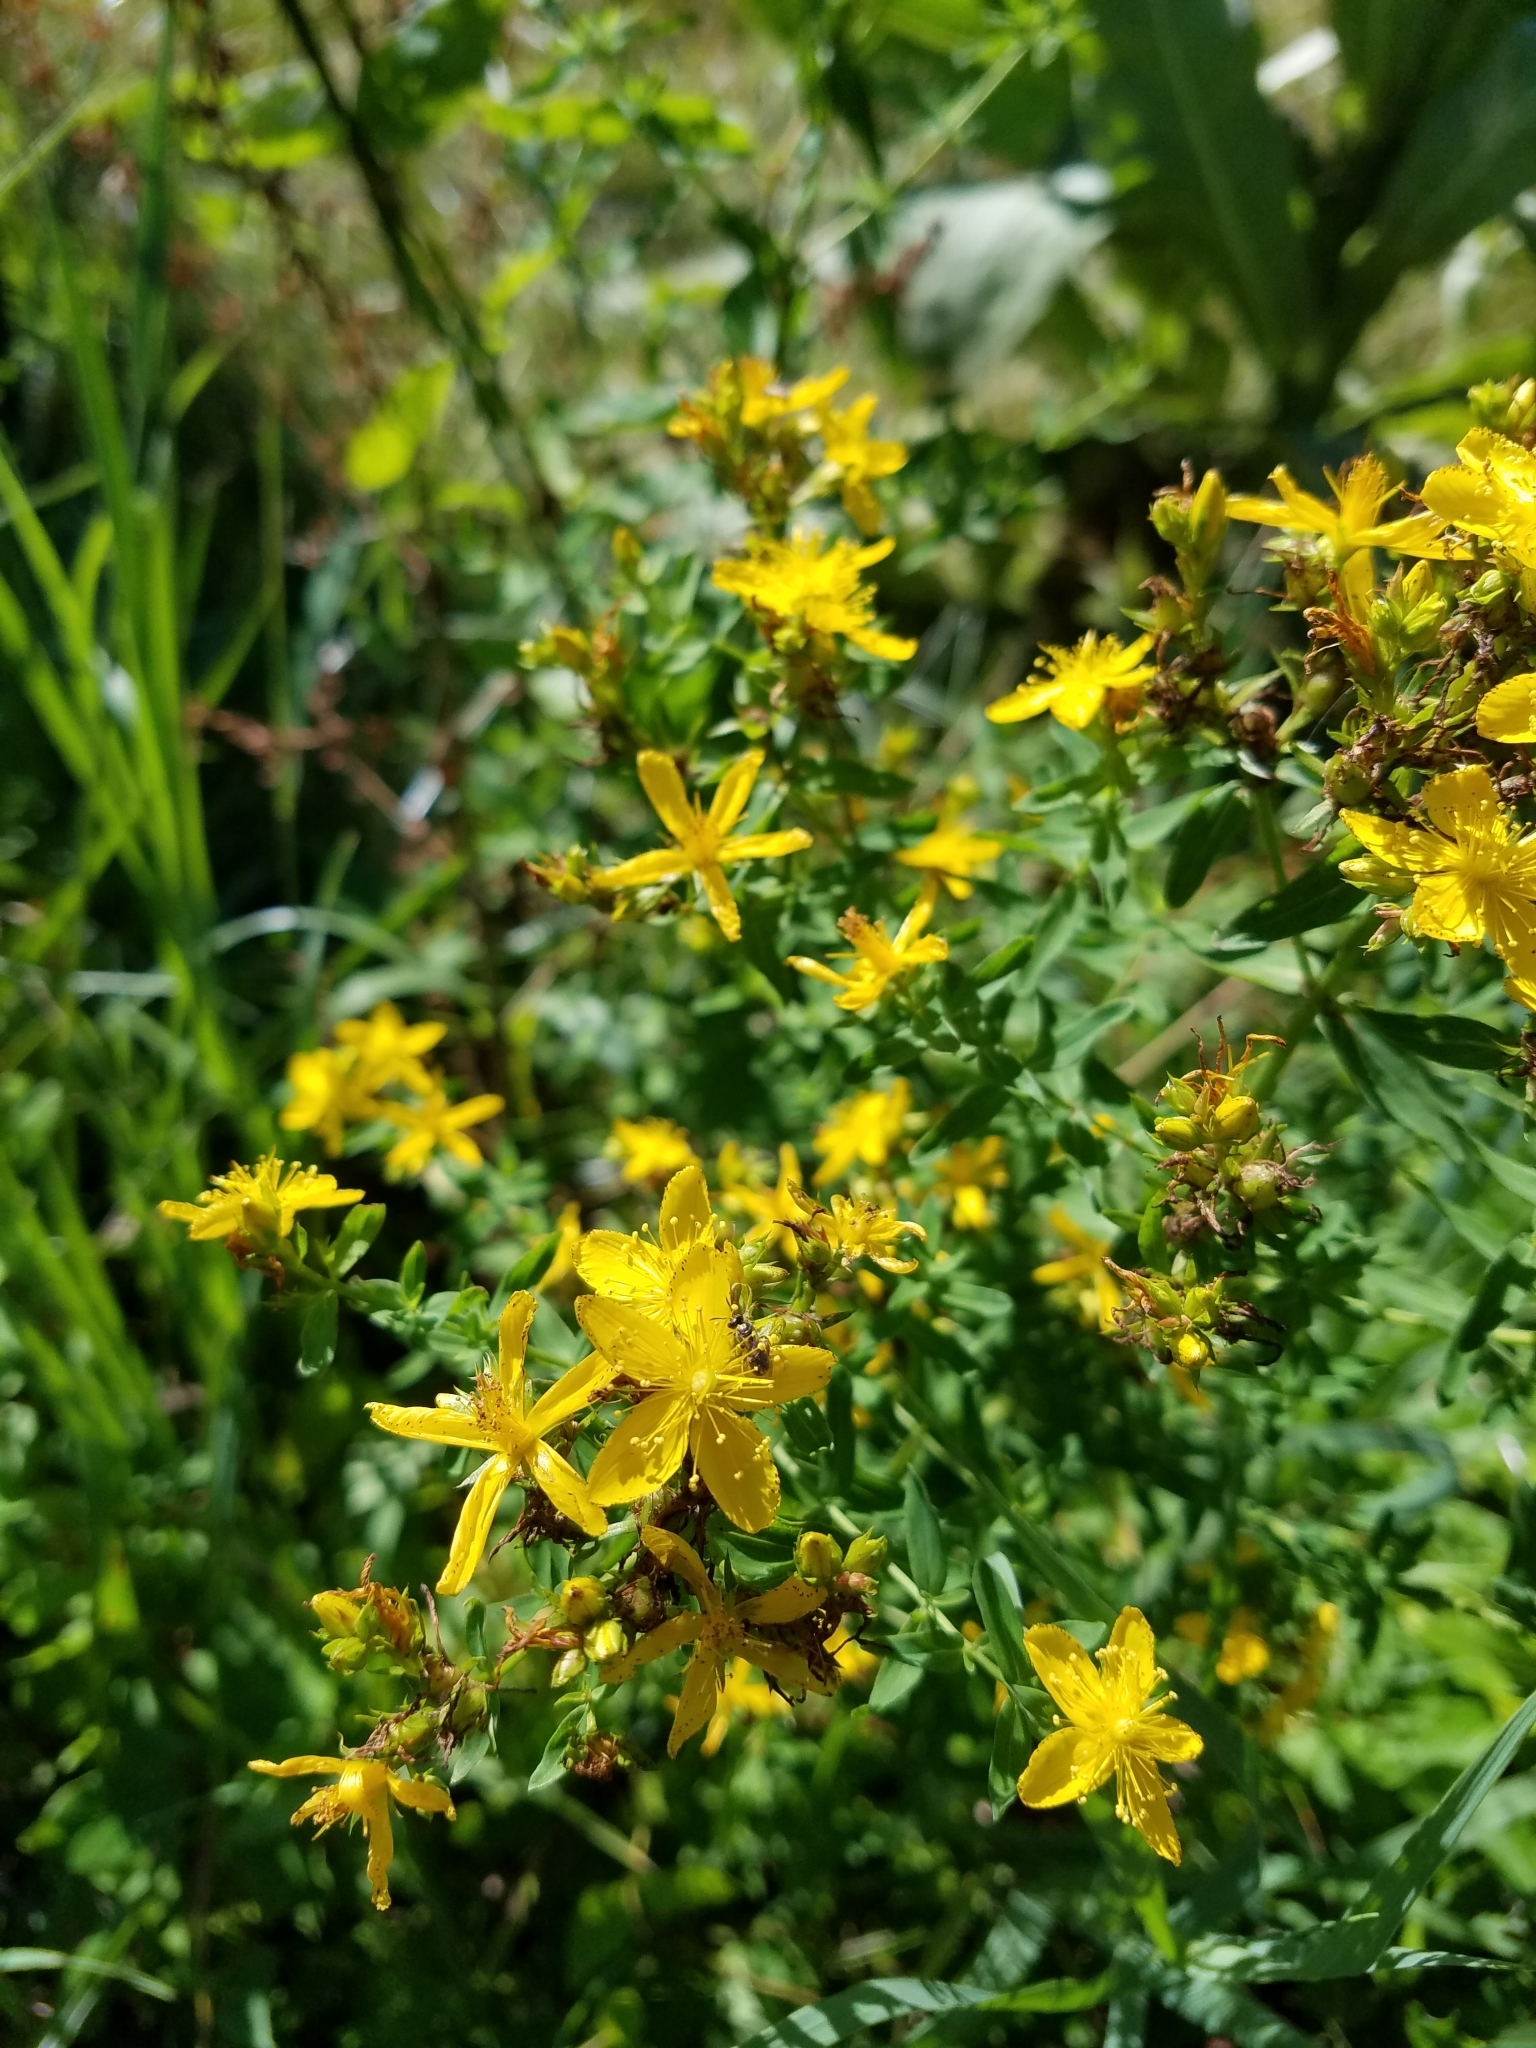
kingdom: Plantae
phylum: Tracheophyta
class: Magnoliopsida
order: Malpighiales
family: Hypericaceae
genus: Hypericum
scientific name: Hypericum perforatum
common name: Common st. johnswort
